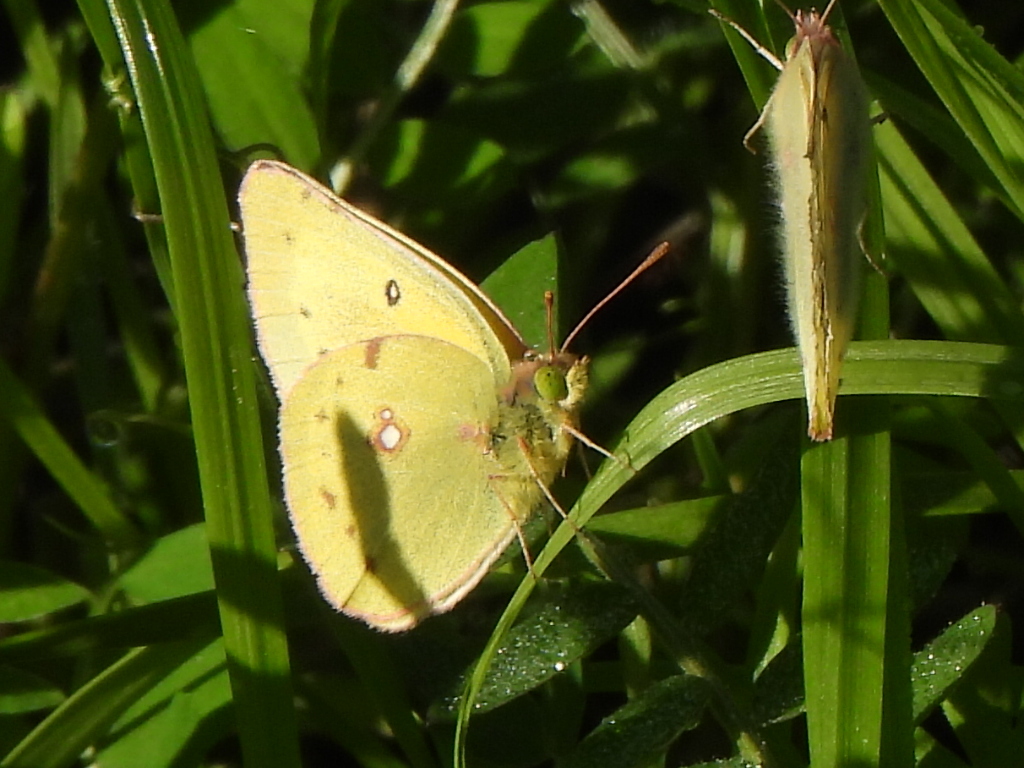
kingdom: Animalia
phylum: Arthropoda
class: Insecta
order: Lepidoptera
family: Pieridae
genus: Colias
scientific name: Colias eurytheme
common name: Alfalfa butterfly
